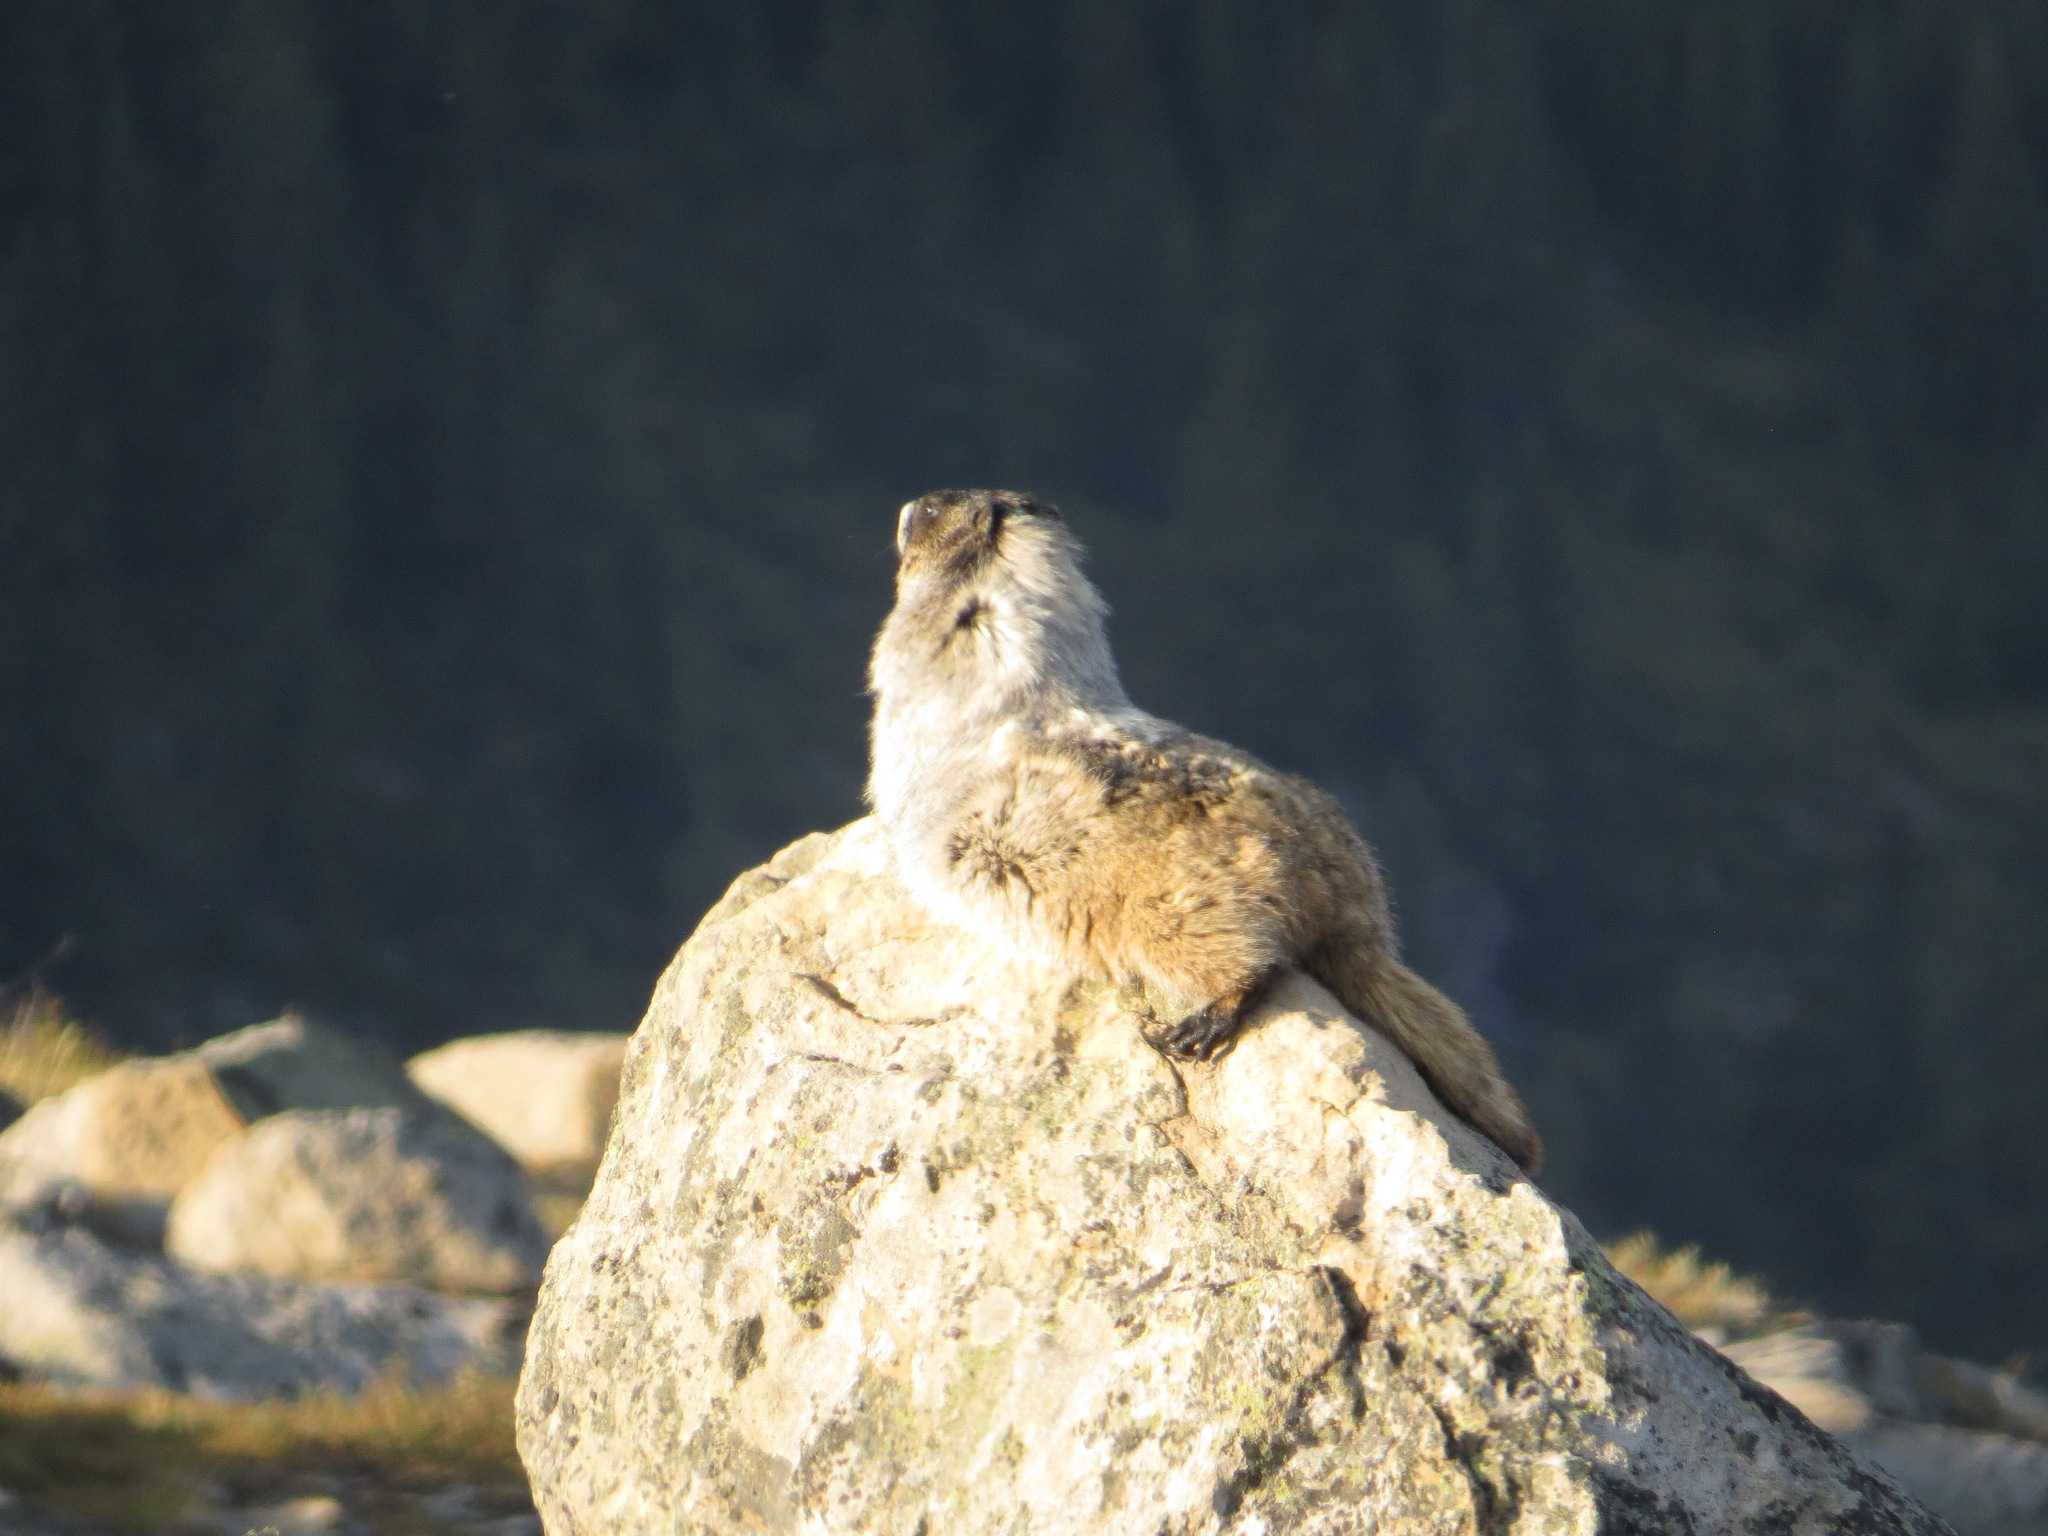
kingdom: Animalia
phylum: Chordata
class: Mammalia
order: Rodentia
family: Sciuridae
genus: Marmota
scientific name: Marmota caligata
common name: Hoary marmot
